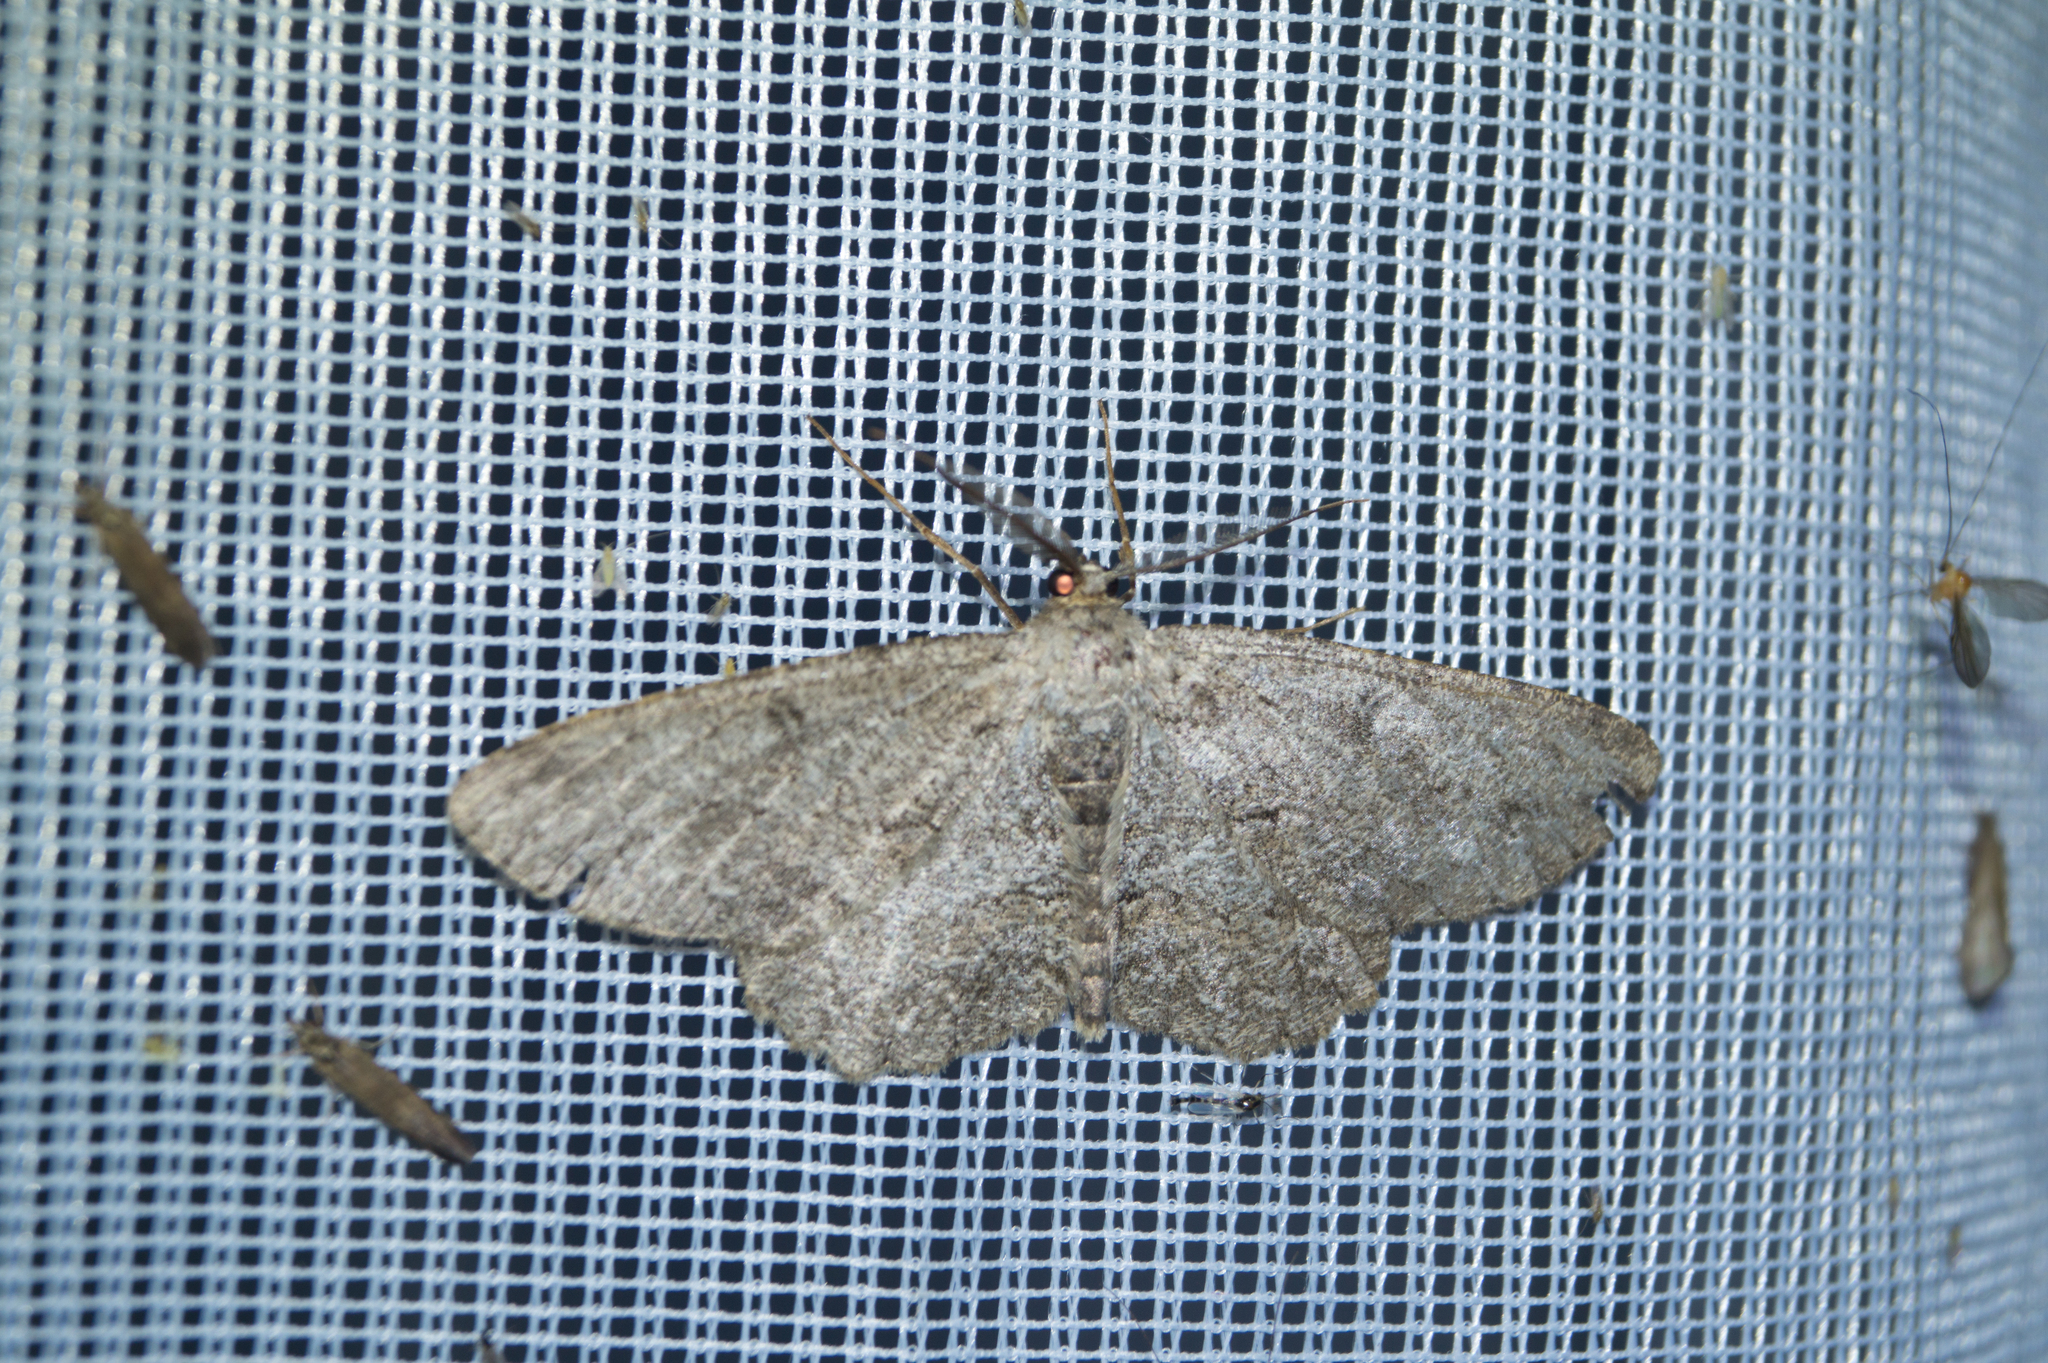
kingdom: Animalia
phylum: Arthropoda
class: Insecta
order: Lepidoptera
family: Geometridae
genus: Hypomecis
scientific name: Hypomecis punctinalis
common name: Pale oak beauty
